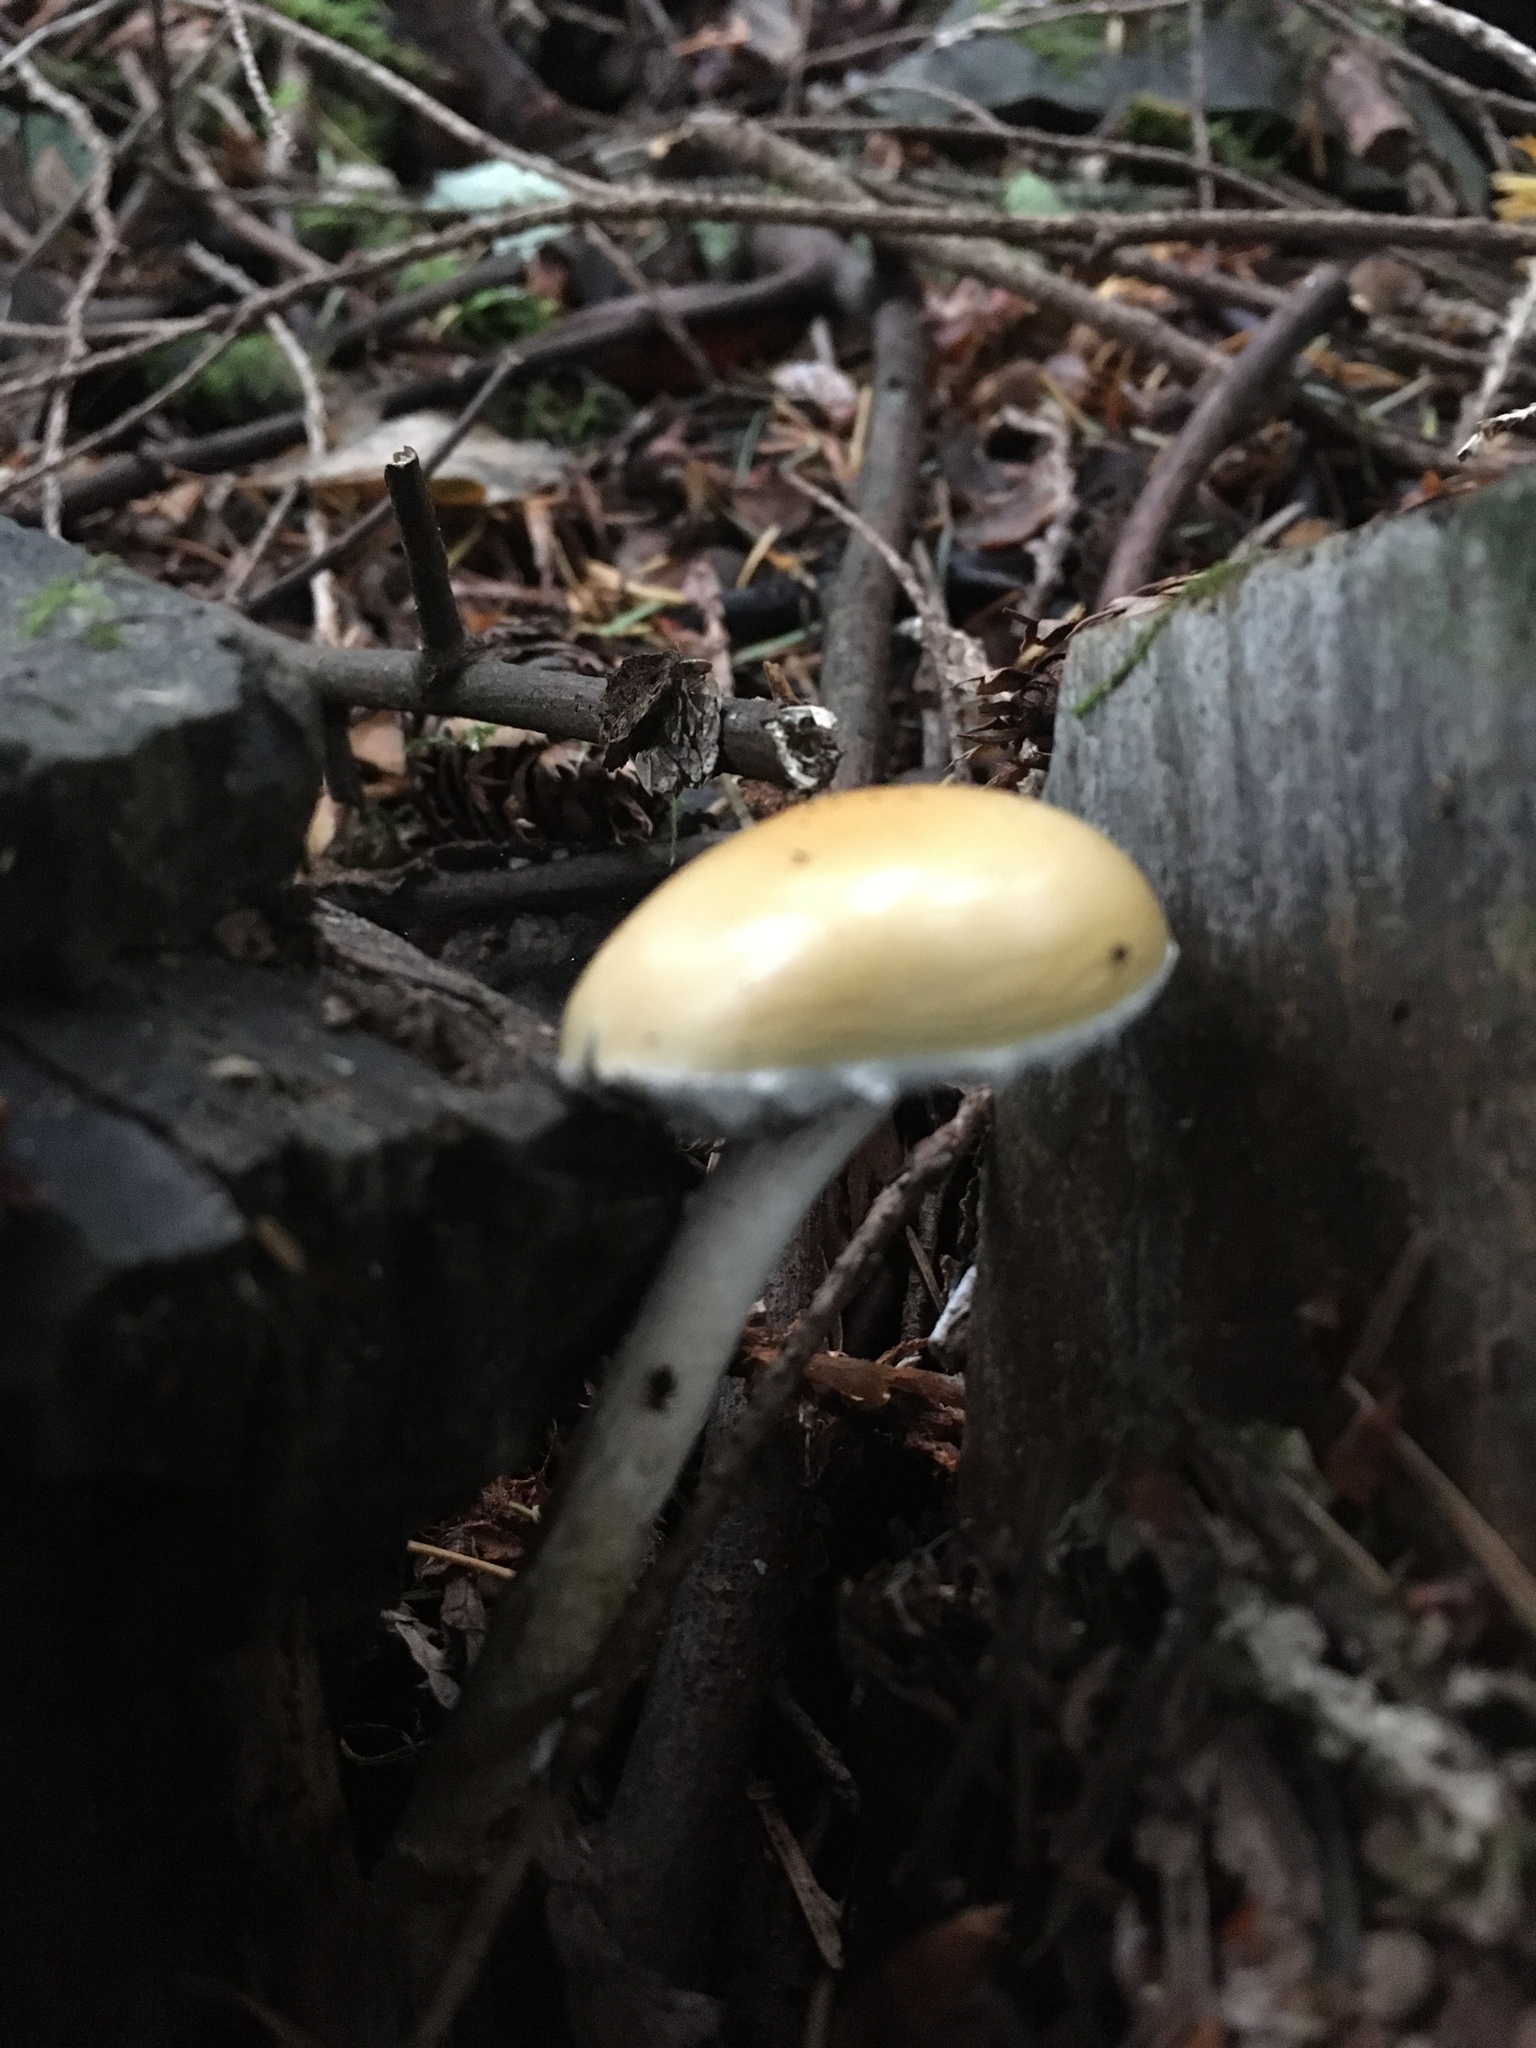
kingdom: Fungi
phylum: Basidiomycota
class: Agaricomycetes
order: Agaricales
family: Strophariaceae
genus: Stropharia
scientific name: Stropharia ambigua
